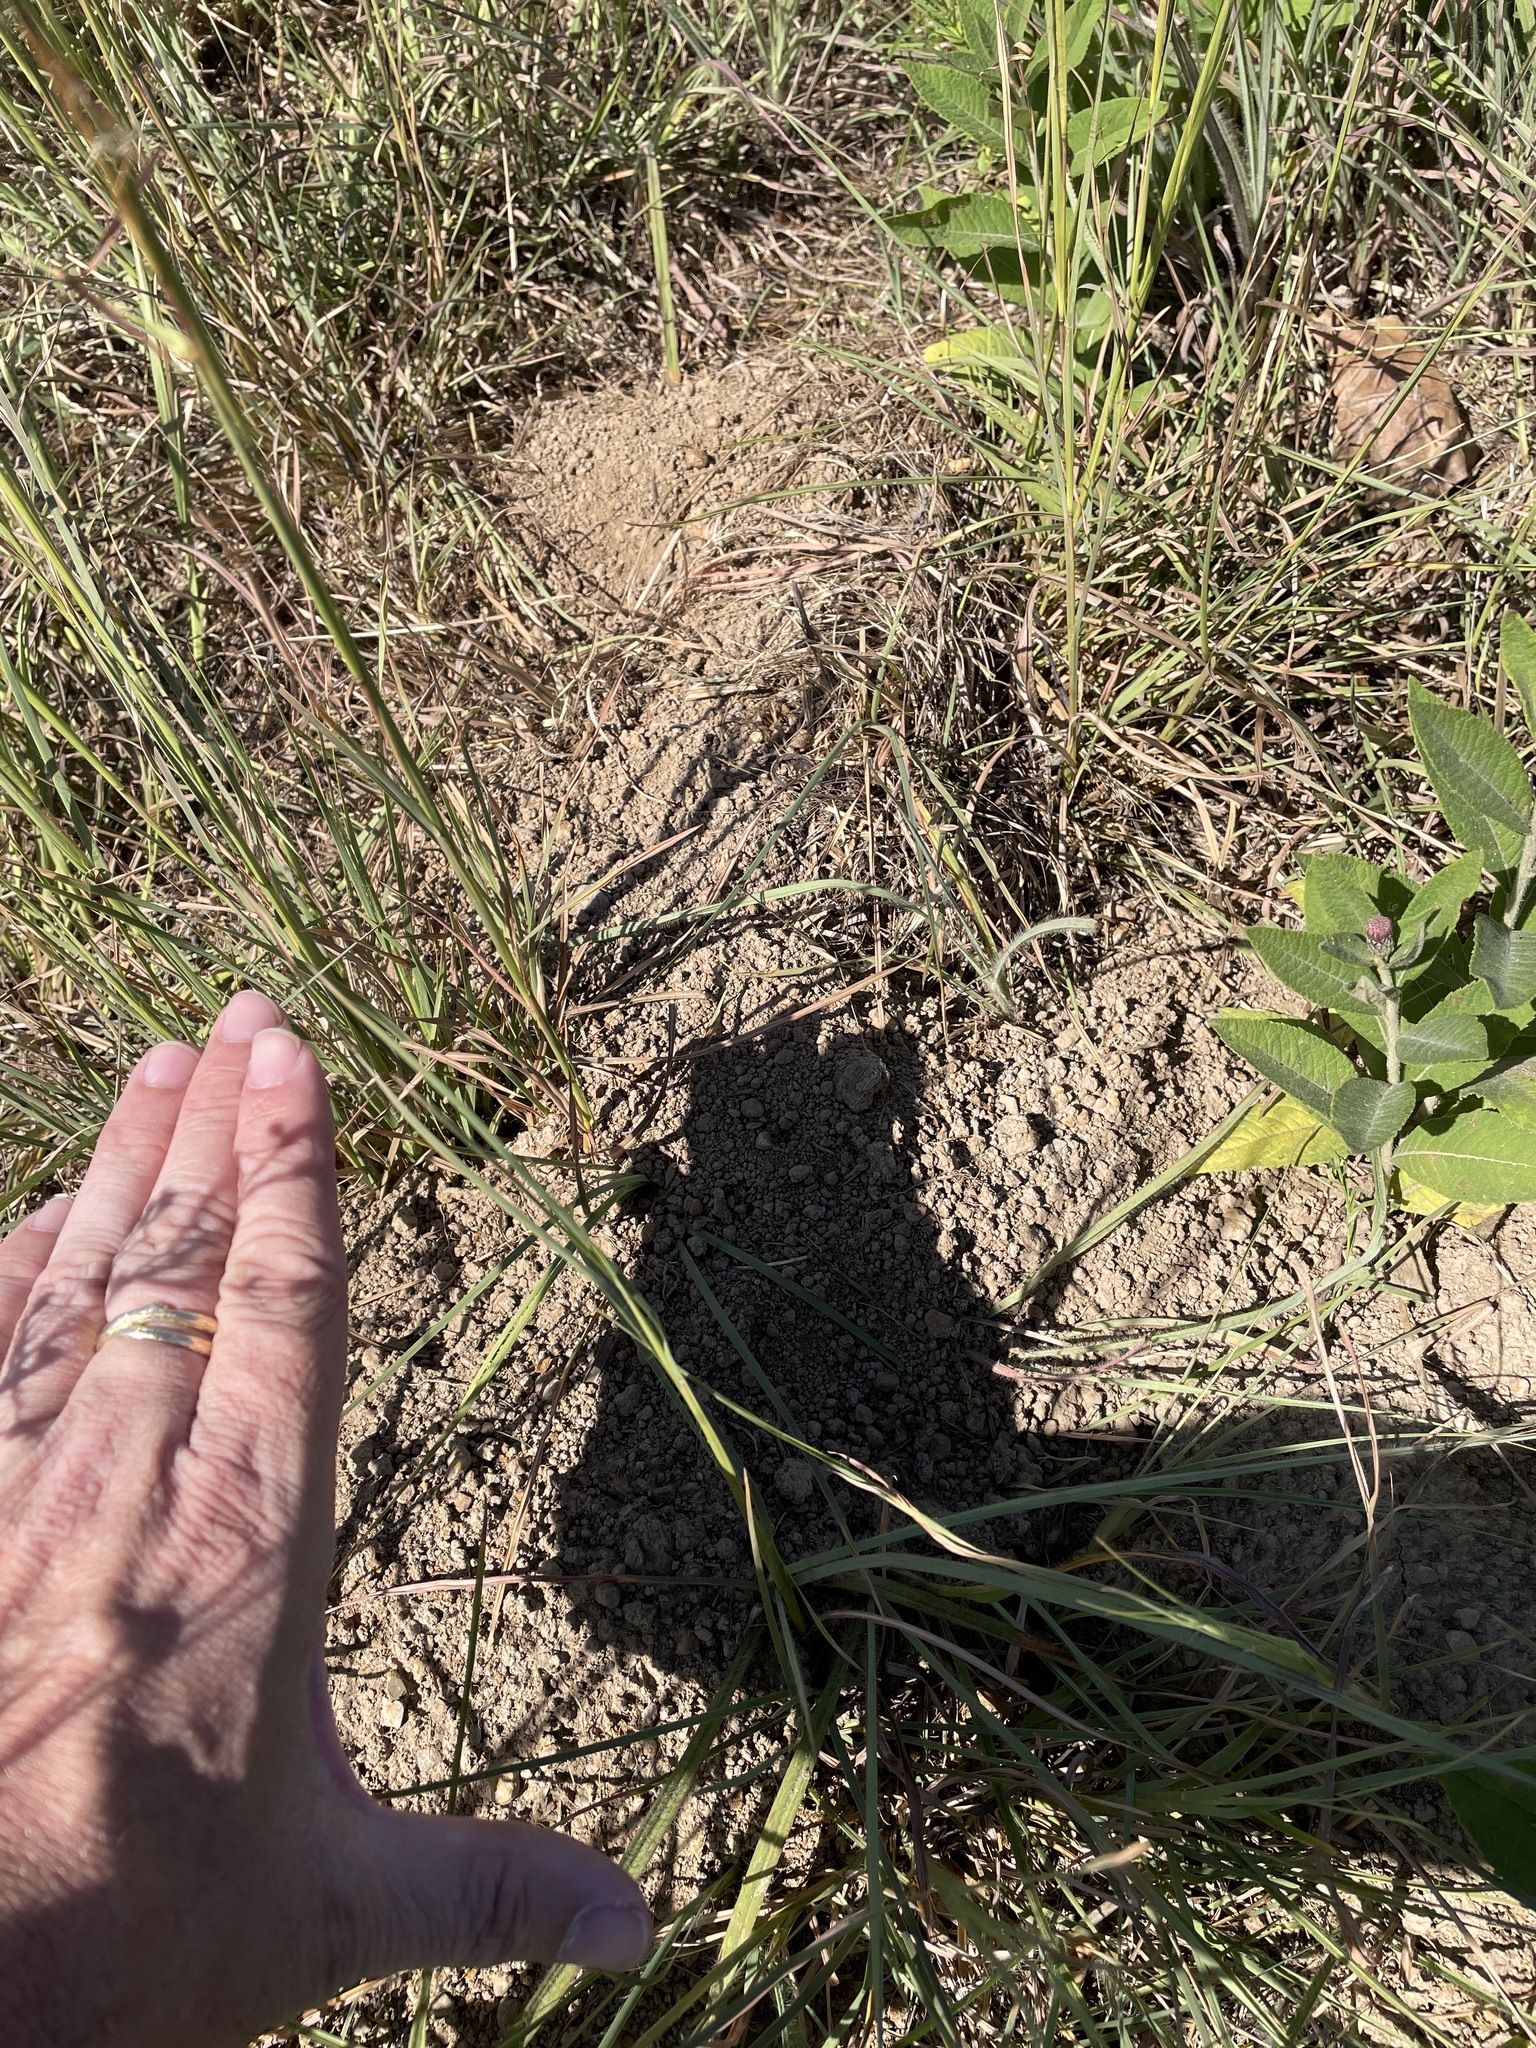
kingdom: Animalia
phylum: Chordata
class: Mammalia
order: Rodentia
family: Geomyidae
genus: Geomys
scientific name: Geomys breviceps
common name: Baird's pocket gopher
